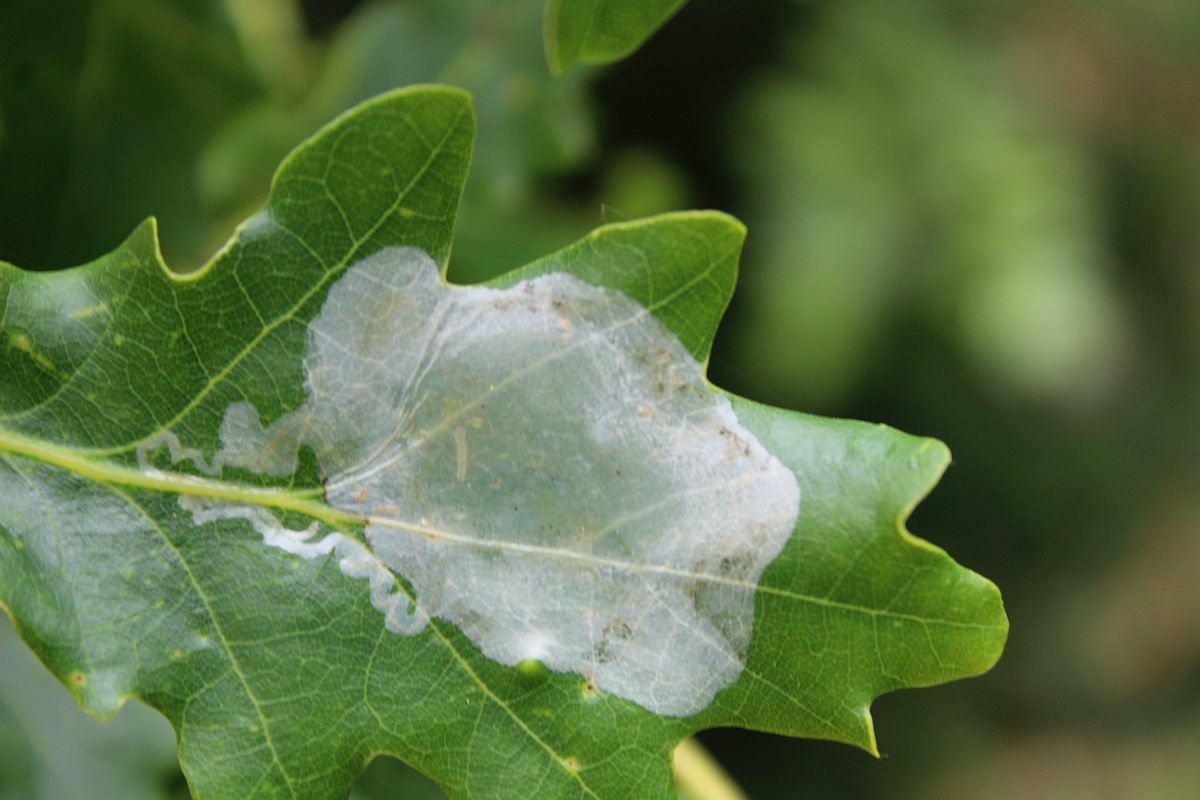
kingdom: Animalia
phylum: Arthropoda
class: Insecta
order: Lepidoptera
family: Gracillariidae
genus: Acrocercops
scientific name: Acrocercops brongniardella
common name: Brown oak slender
